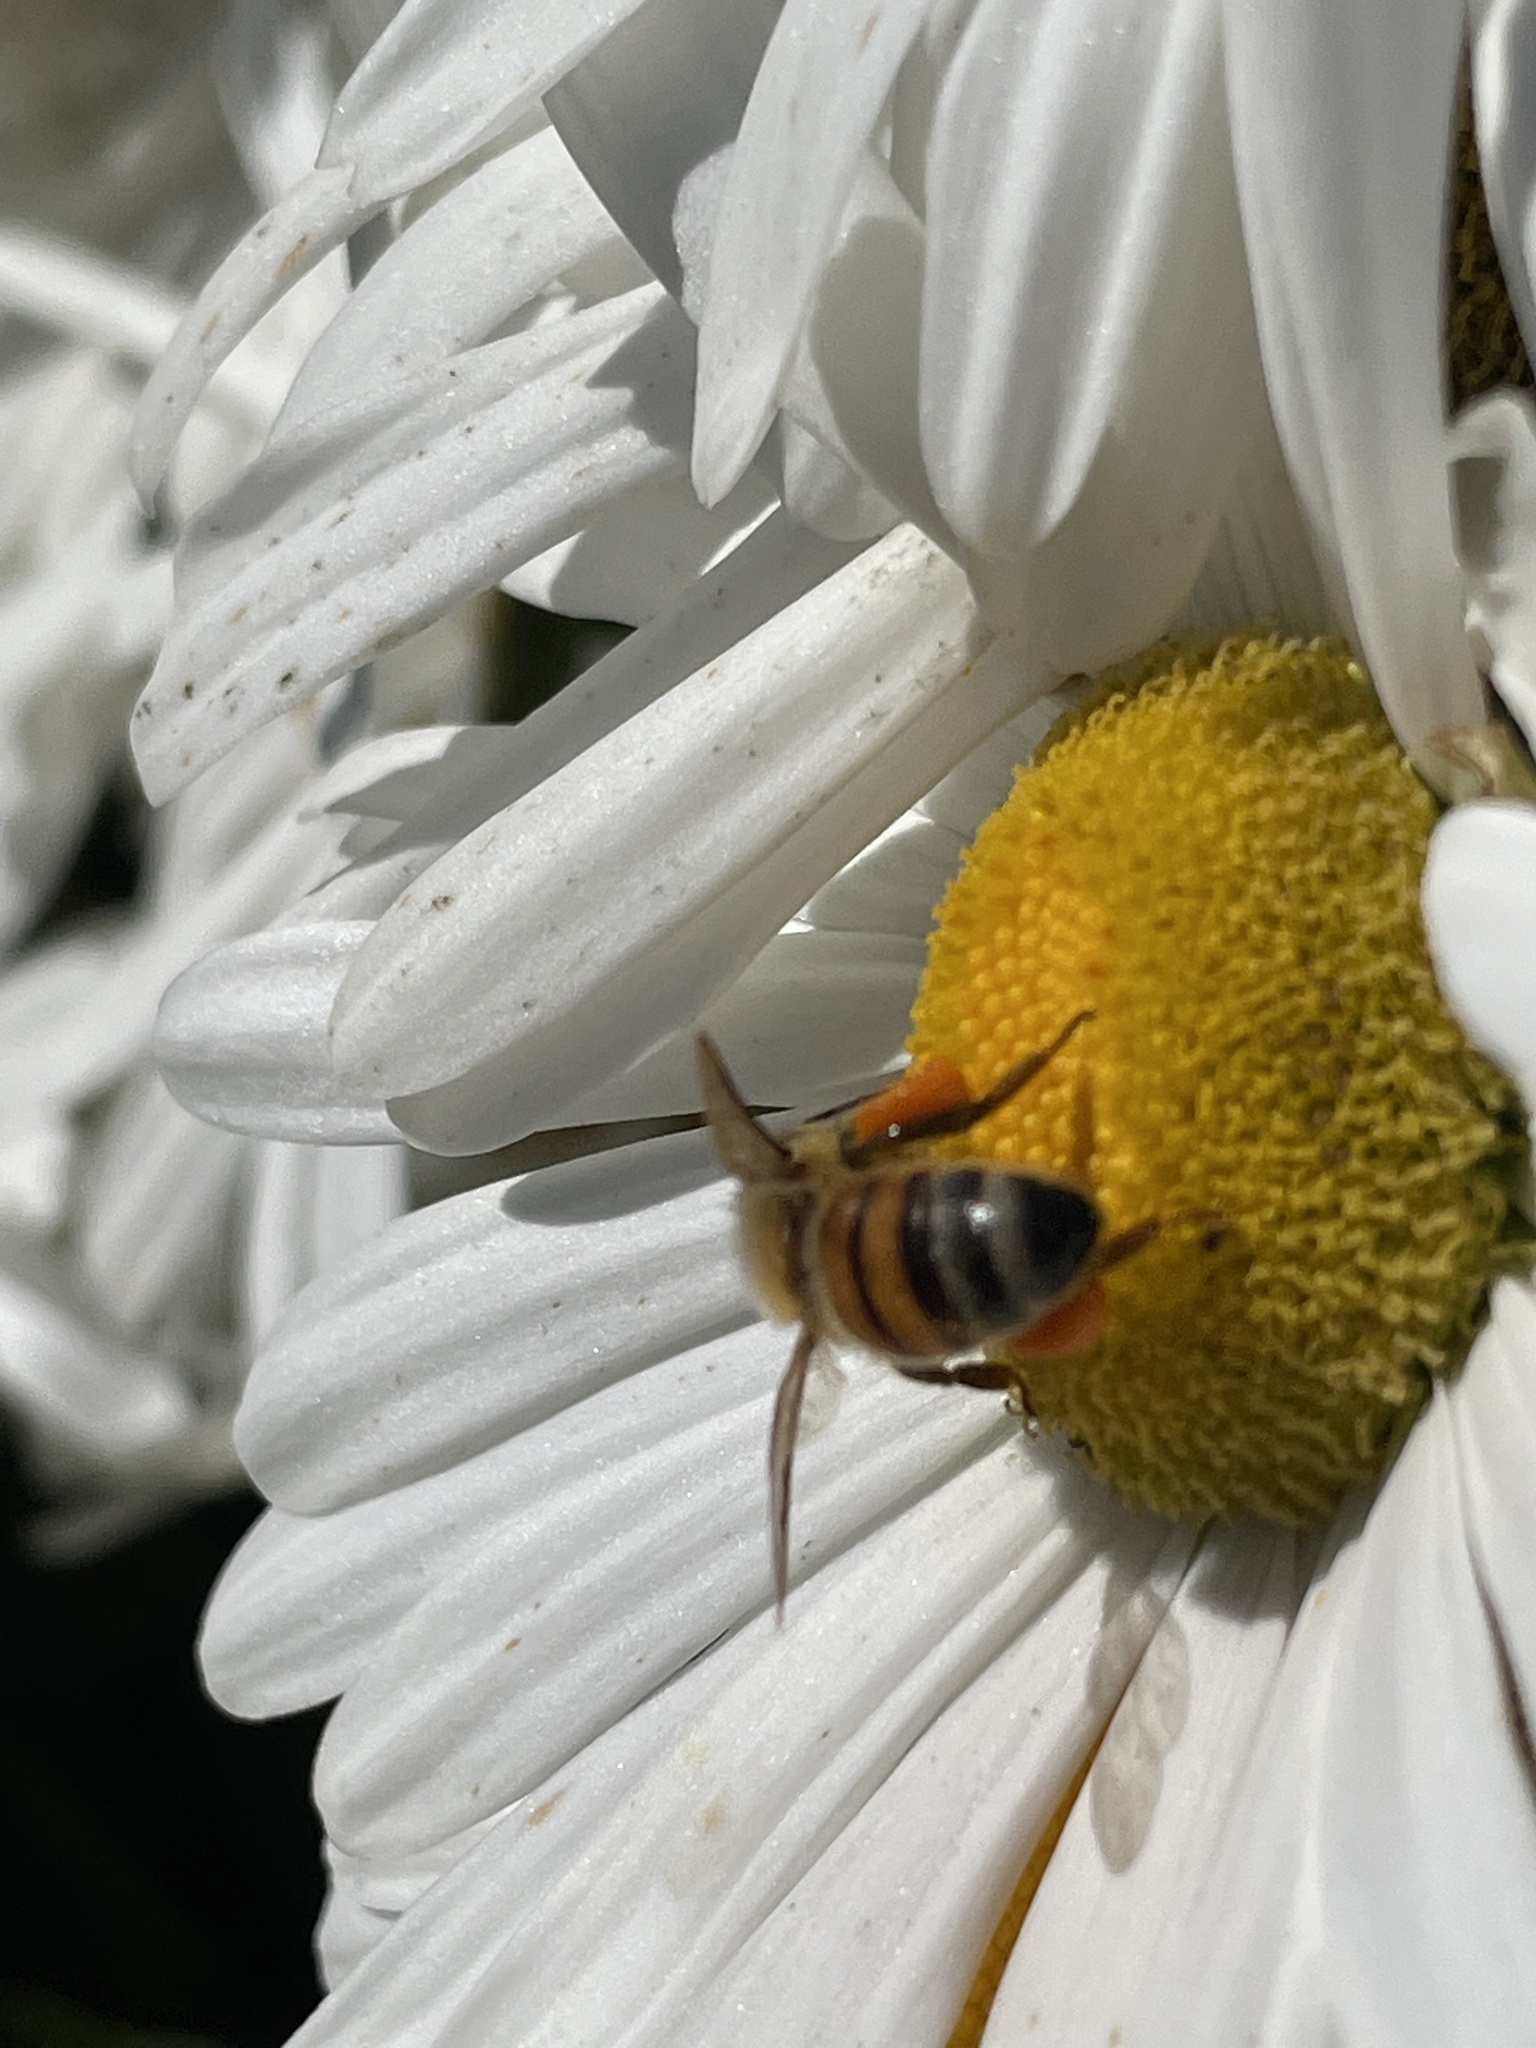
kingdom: Animalia
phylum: Arthropoda
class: Insecta
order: Hymenoptera
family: Apidae
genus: Apis
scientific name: Apis mellifera
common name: Honey bee
